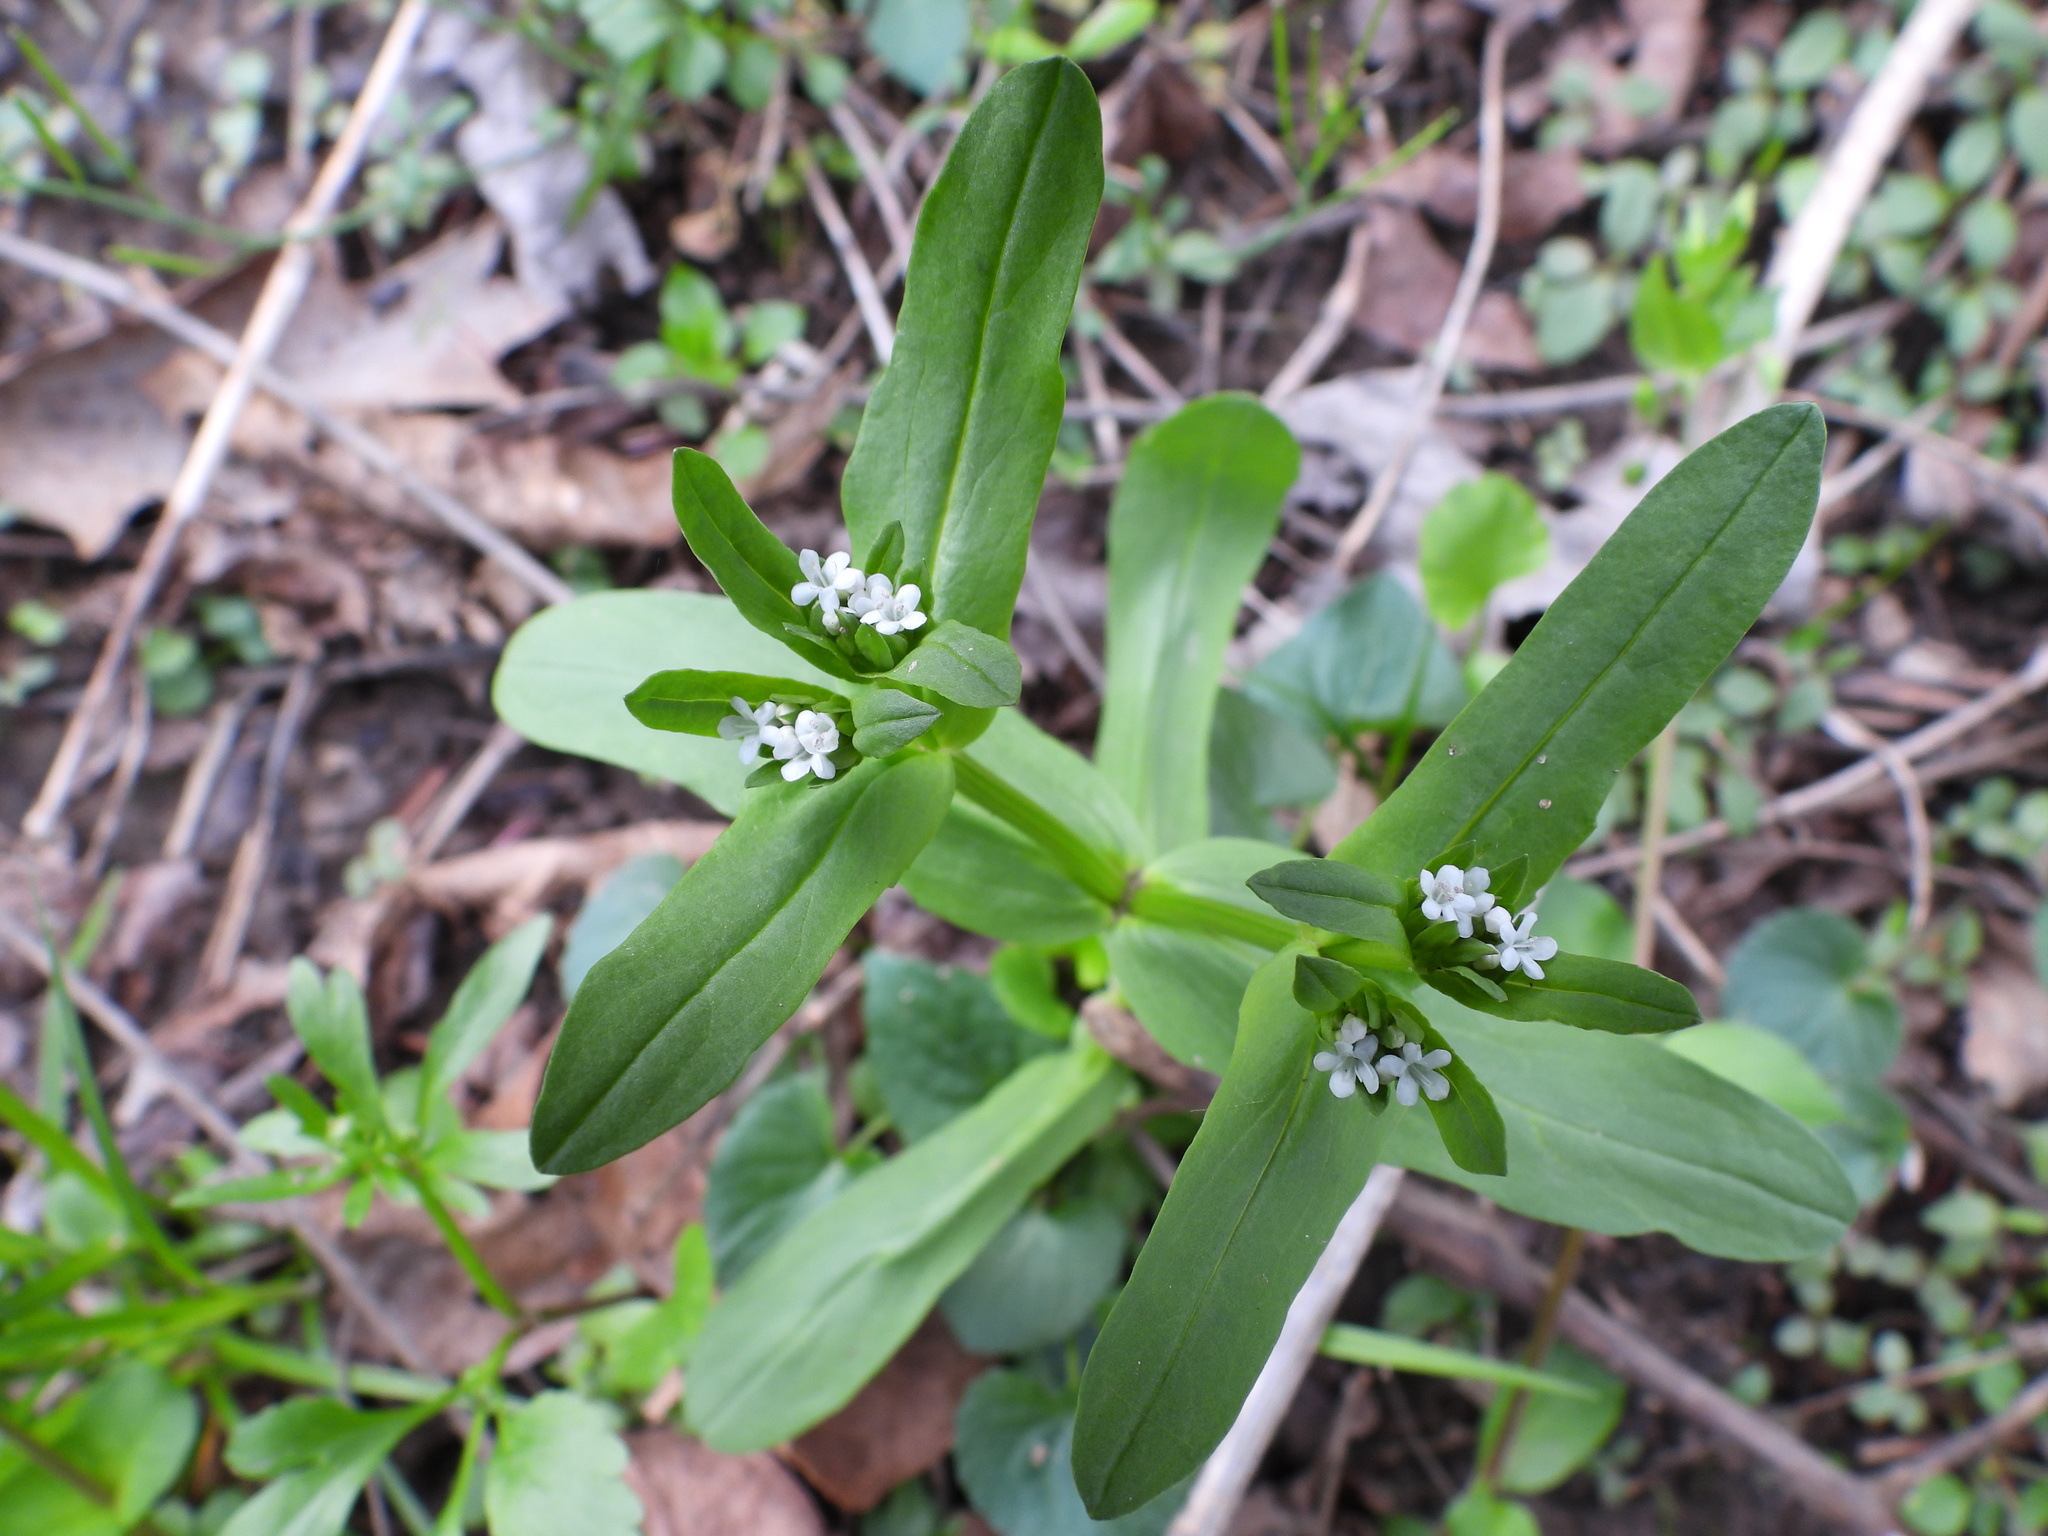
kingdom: Plantae
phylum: Tracheophyta
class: Magnoliopsida
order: Dipsacales
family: Caprifoliaceae
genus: Valerianella
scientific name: Valerianella locusta
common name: Common cornsalad
